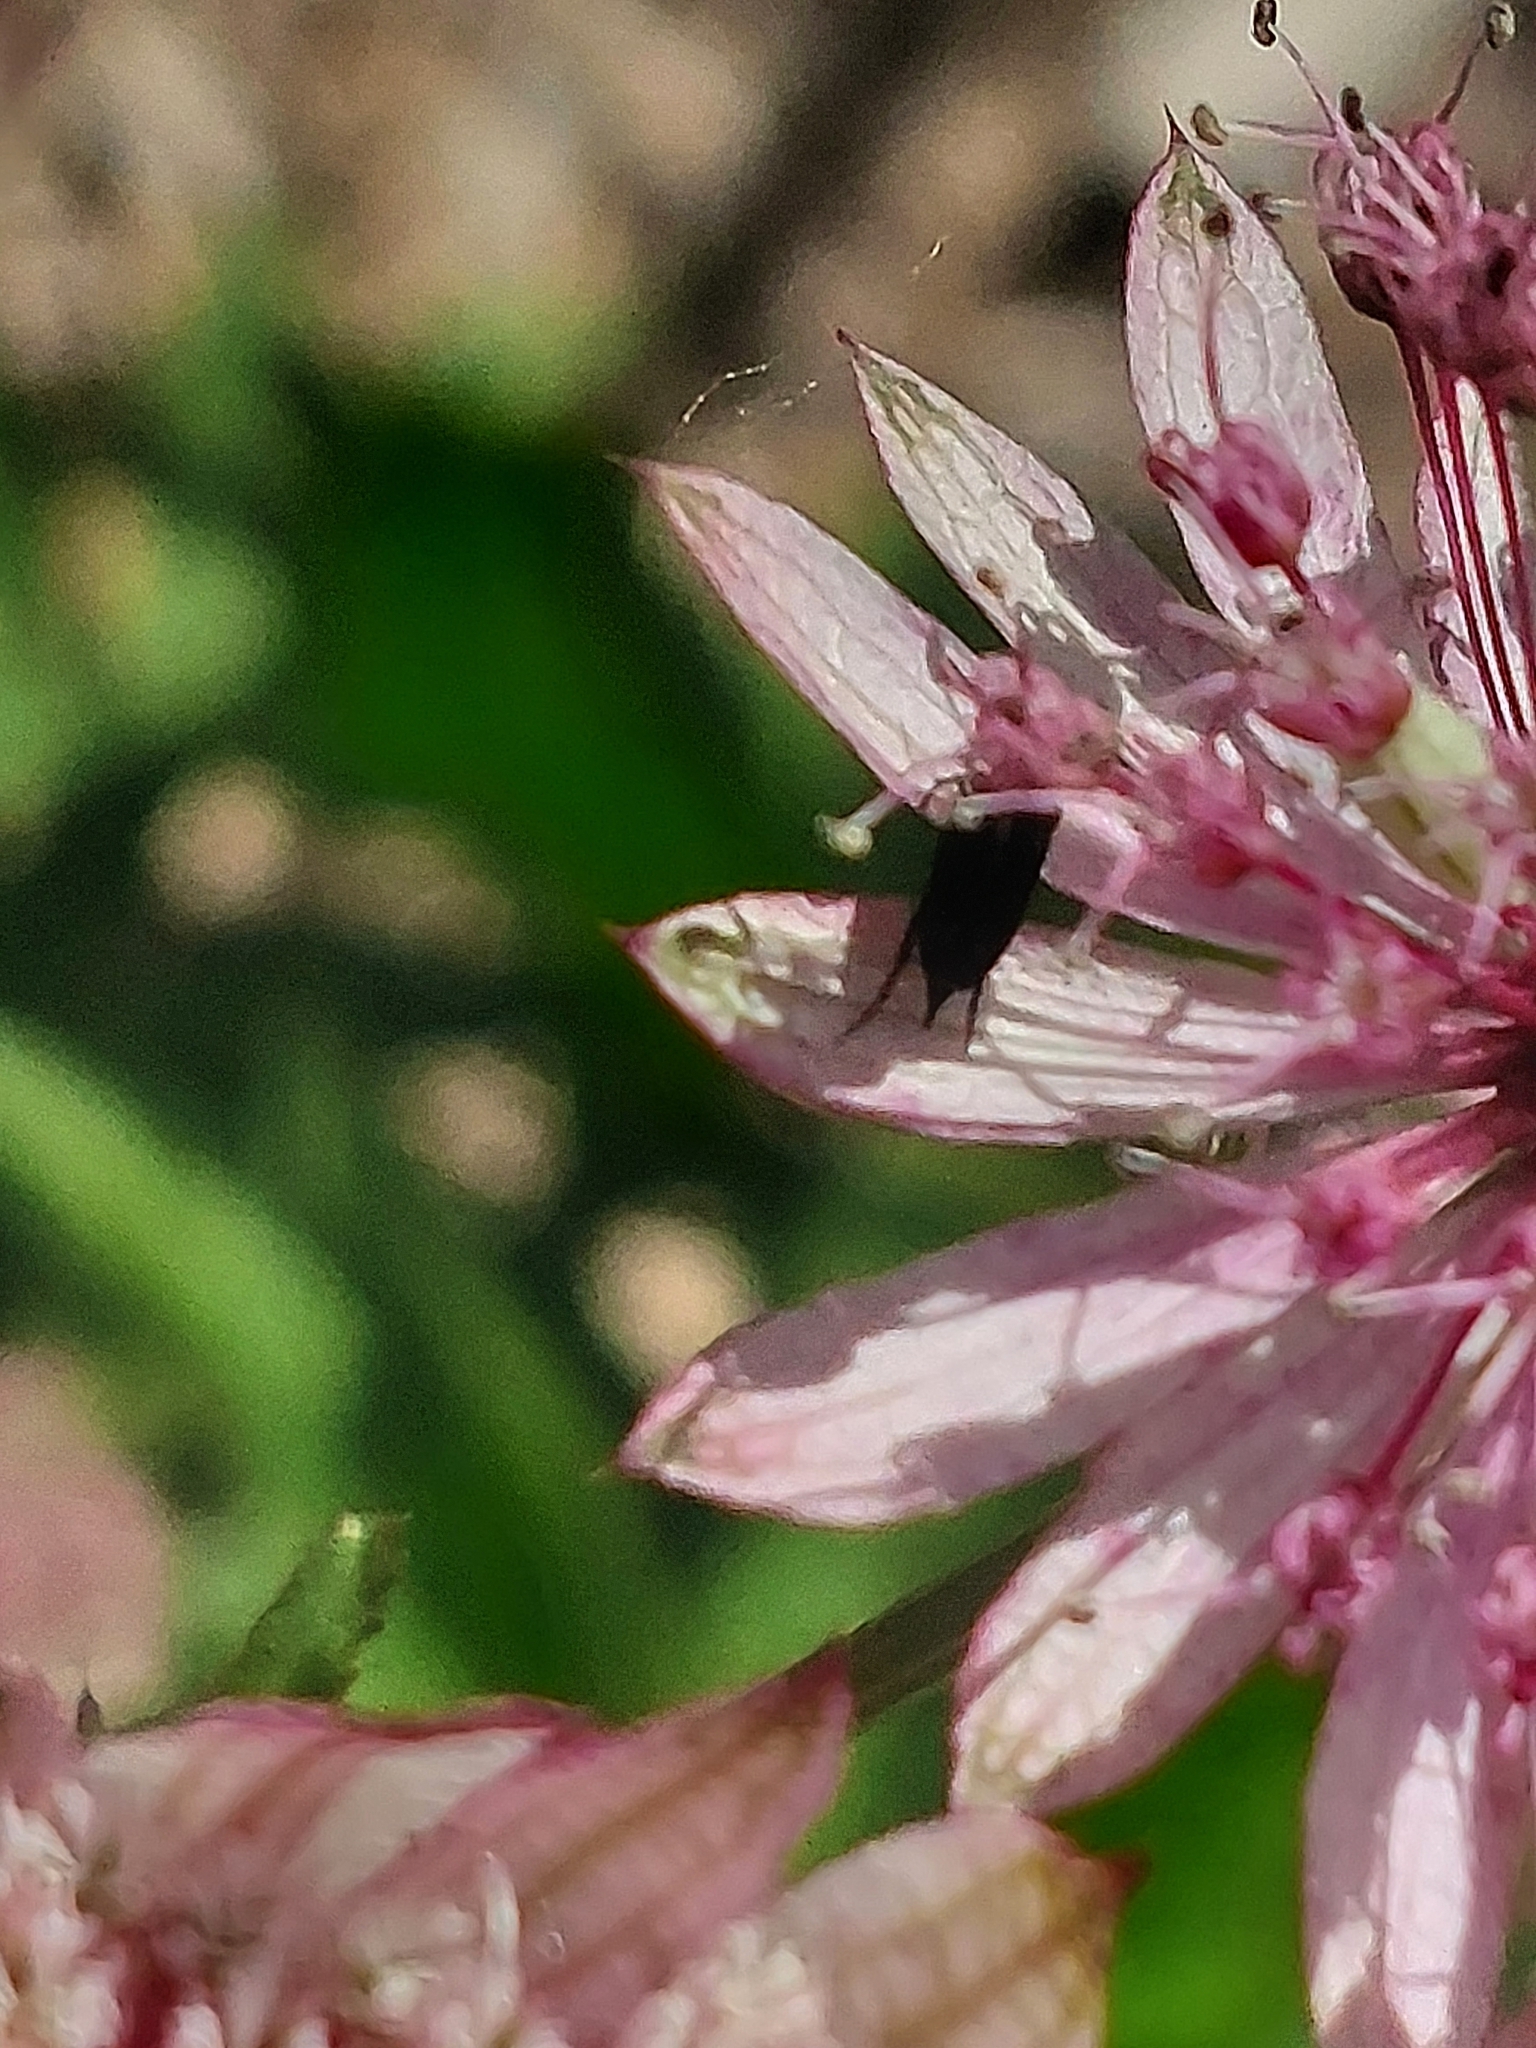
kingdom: Animalia
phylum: Arthropoda
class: Insecta
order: Coleoptera
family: Mordellidae
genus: Mordella
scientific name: Mordella marginata
